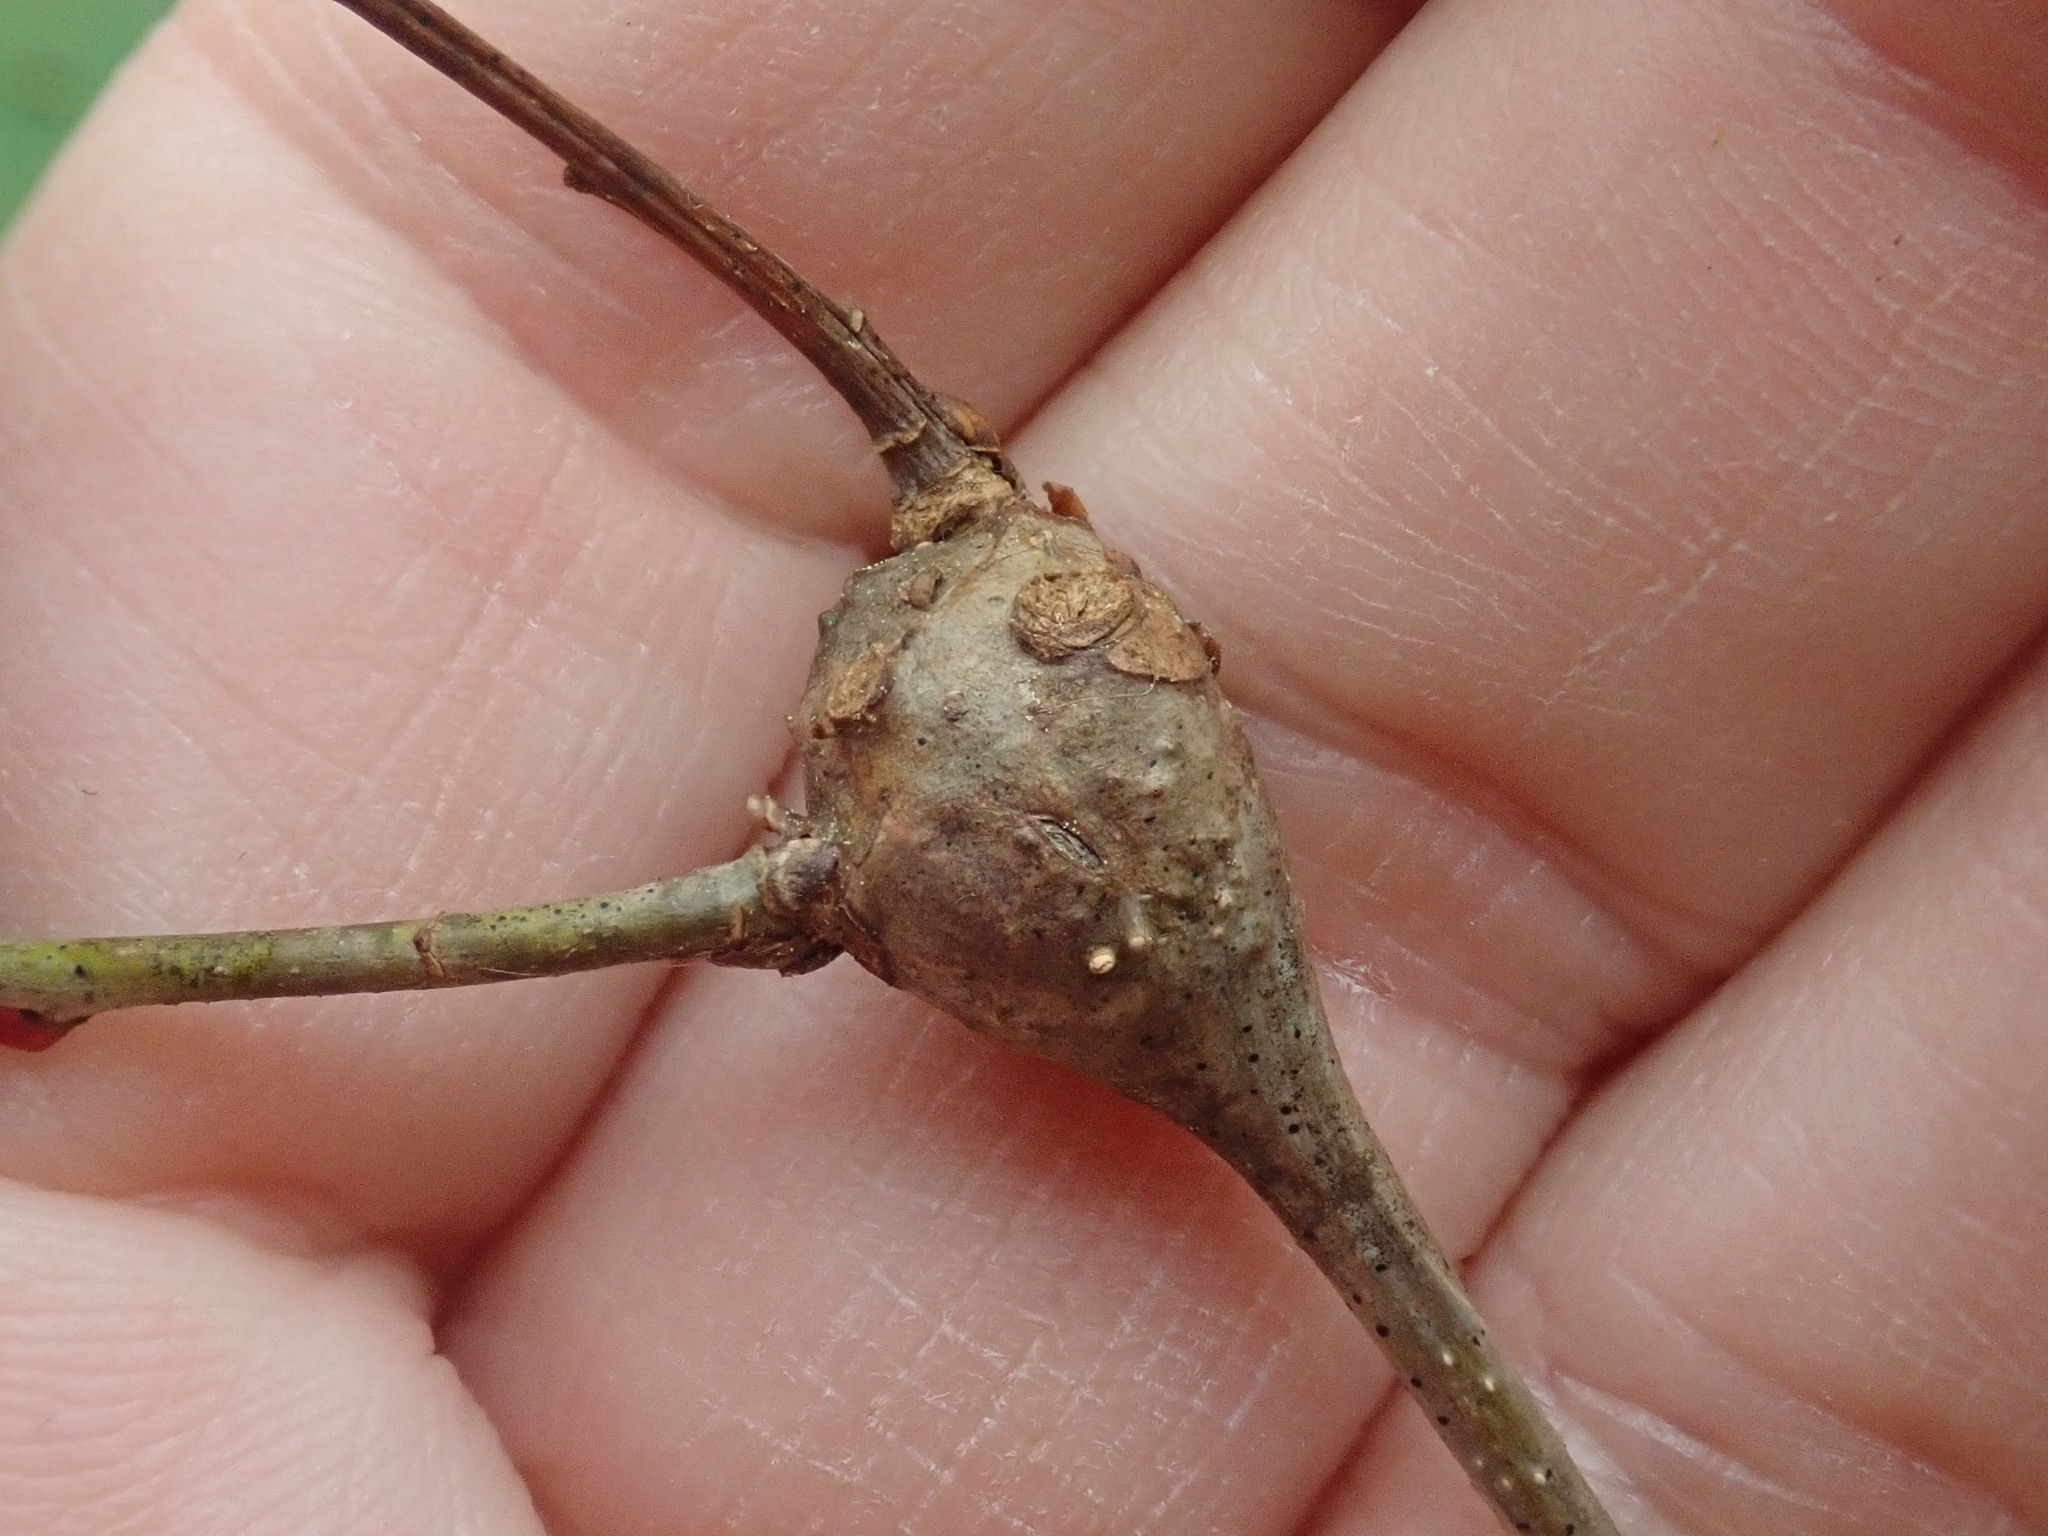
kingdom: Animalia
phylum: Arthropoda
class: Insecta
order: Hymenoptera
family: Cynipidae
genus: Callirhytis
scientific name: Callirhytis clavula
